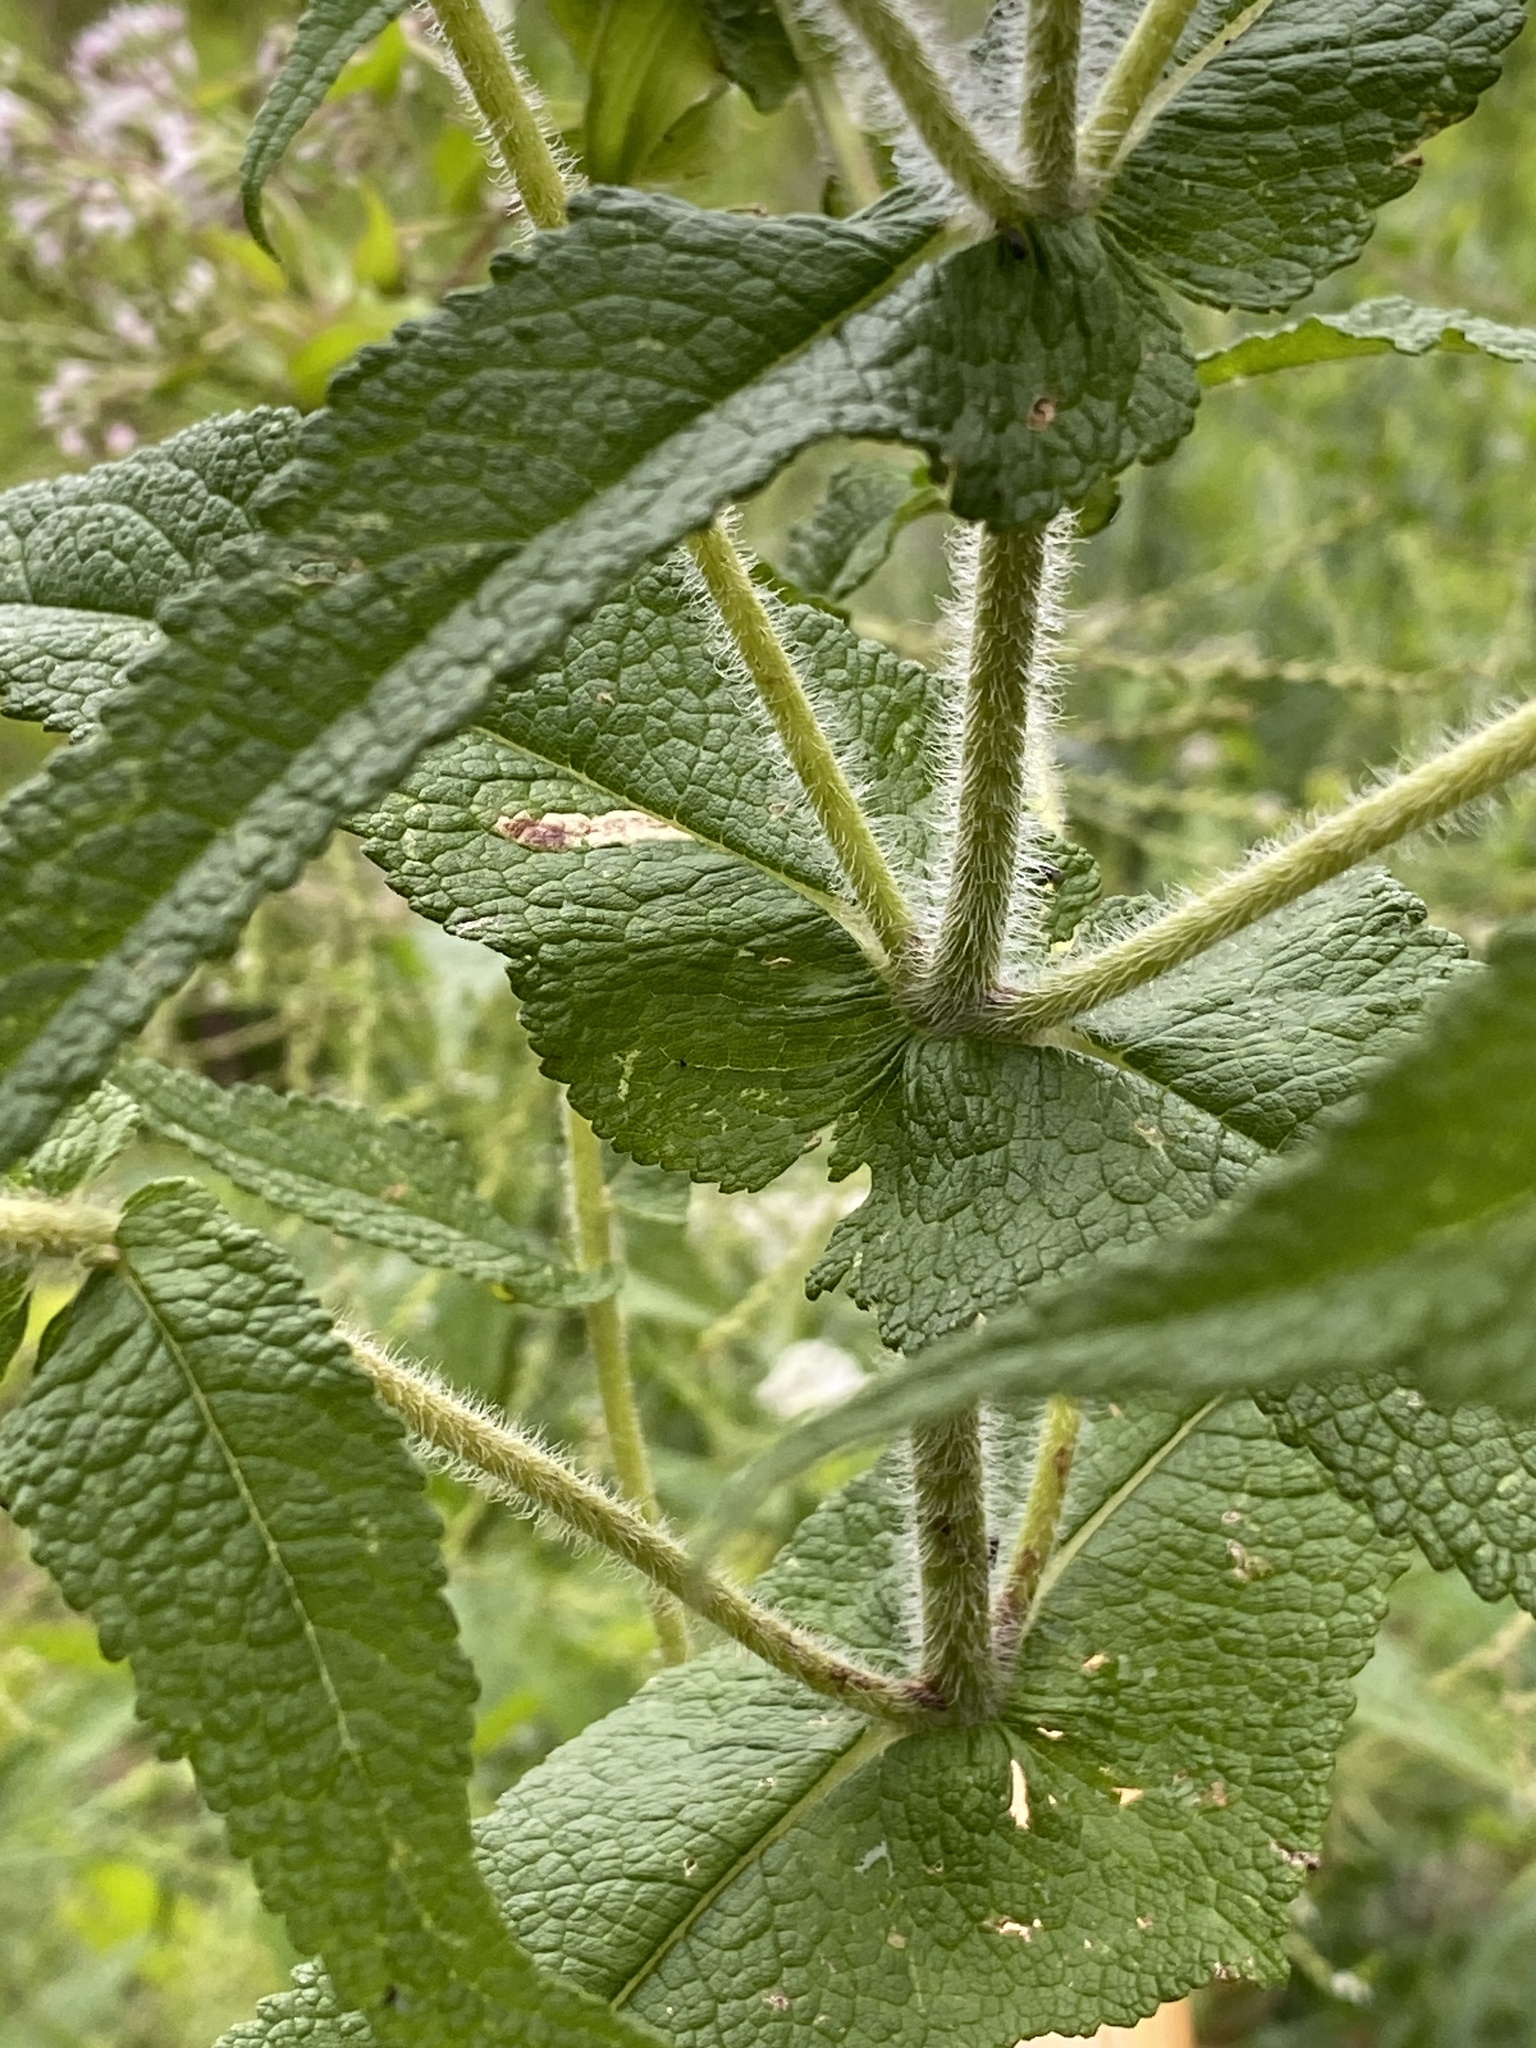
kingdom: Plantae
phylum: Tracheophyta
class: Magnoliopsida
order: Asterales
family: Asteraceae
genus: Eupatorium
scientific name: Eupatorium perfoliatum
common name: Boneset
